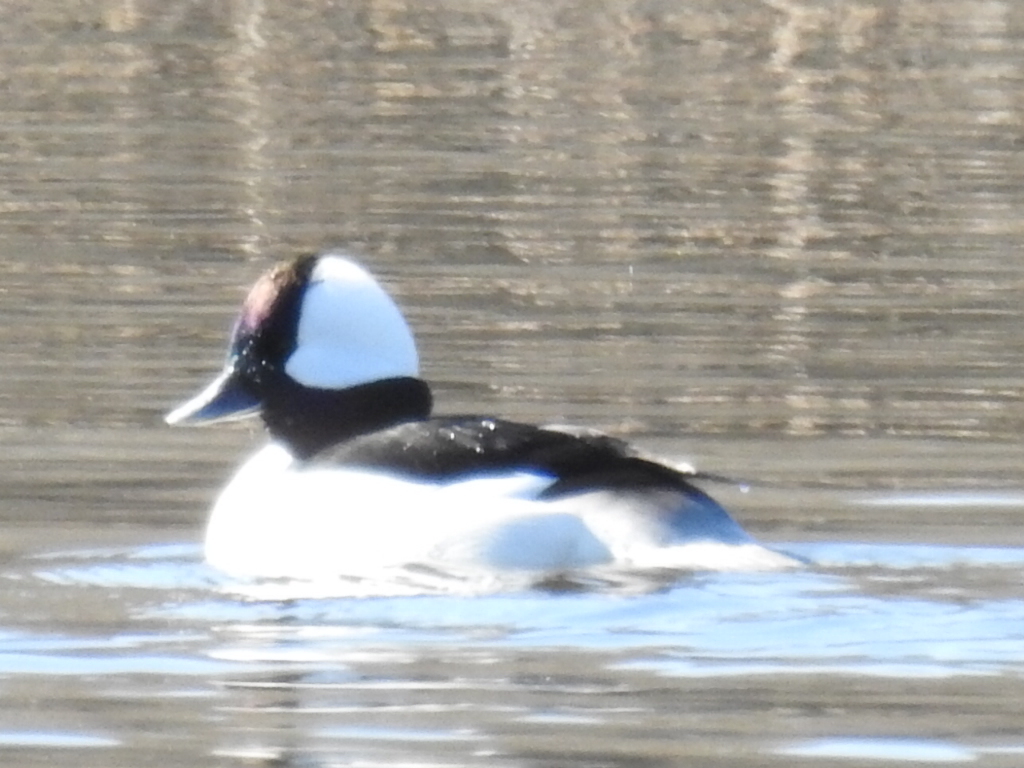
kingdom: Animalia
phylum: Chordata
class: Aves
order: Anseriformes
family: Anatidae
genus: Bucephala
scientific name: Bucephala albeola
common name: Bufflehead
